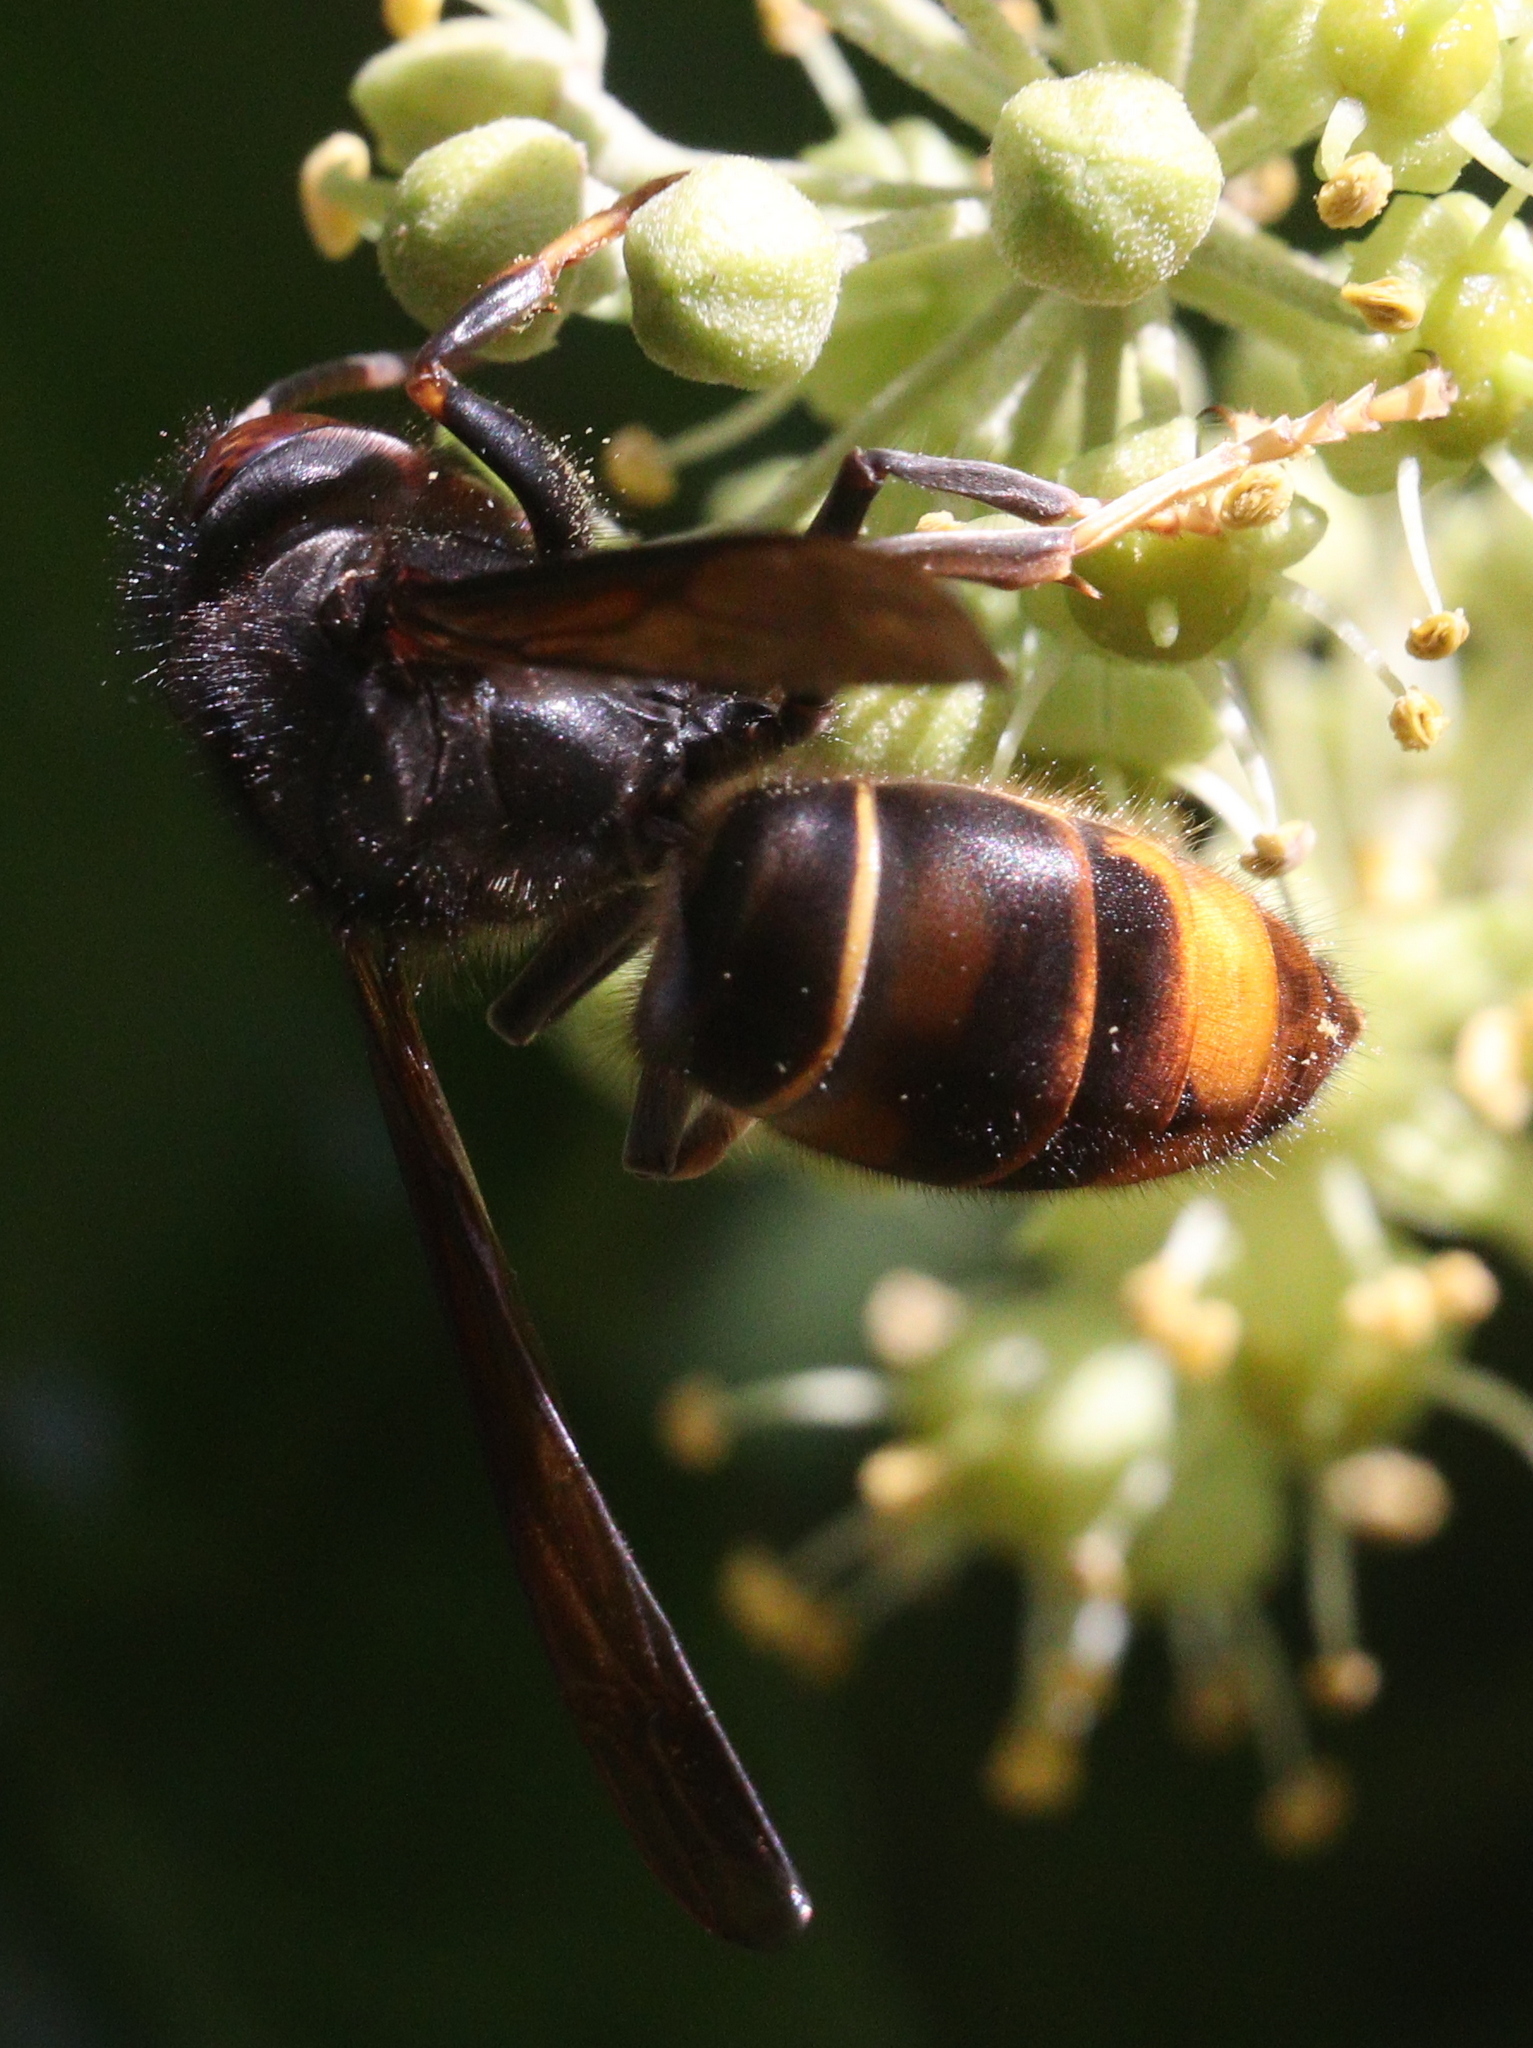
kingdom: Animalia
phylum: Arthropoda
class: Insecta
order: Hymenoptera
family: Vespidae
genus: Vespa
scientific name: Vespa velutina
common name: Asian hornet
